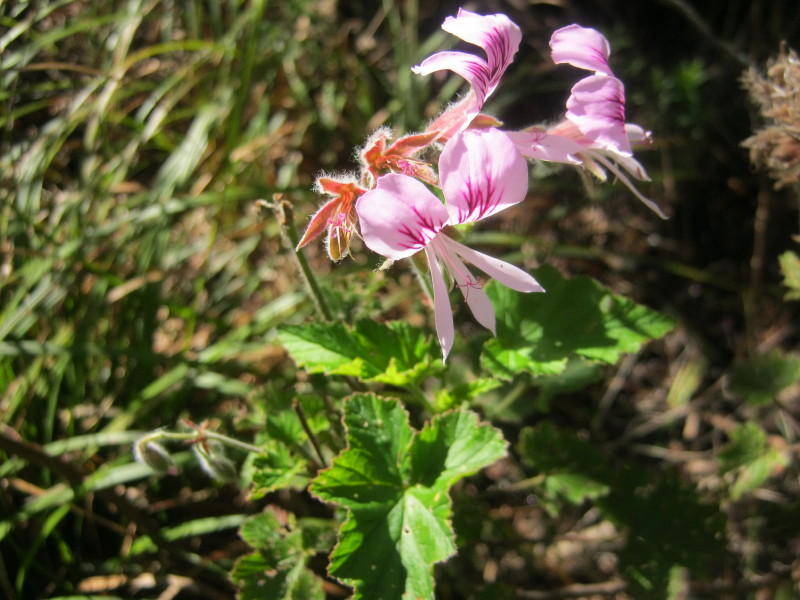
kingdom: Plantae
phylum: Tracheophyta
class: Magnoliopsida
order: Geraniales
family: Geraniaceae
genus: Pelargonium
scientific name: Pelargonium cordifolium
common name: Heart-leaf pelargonium
